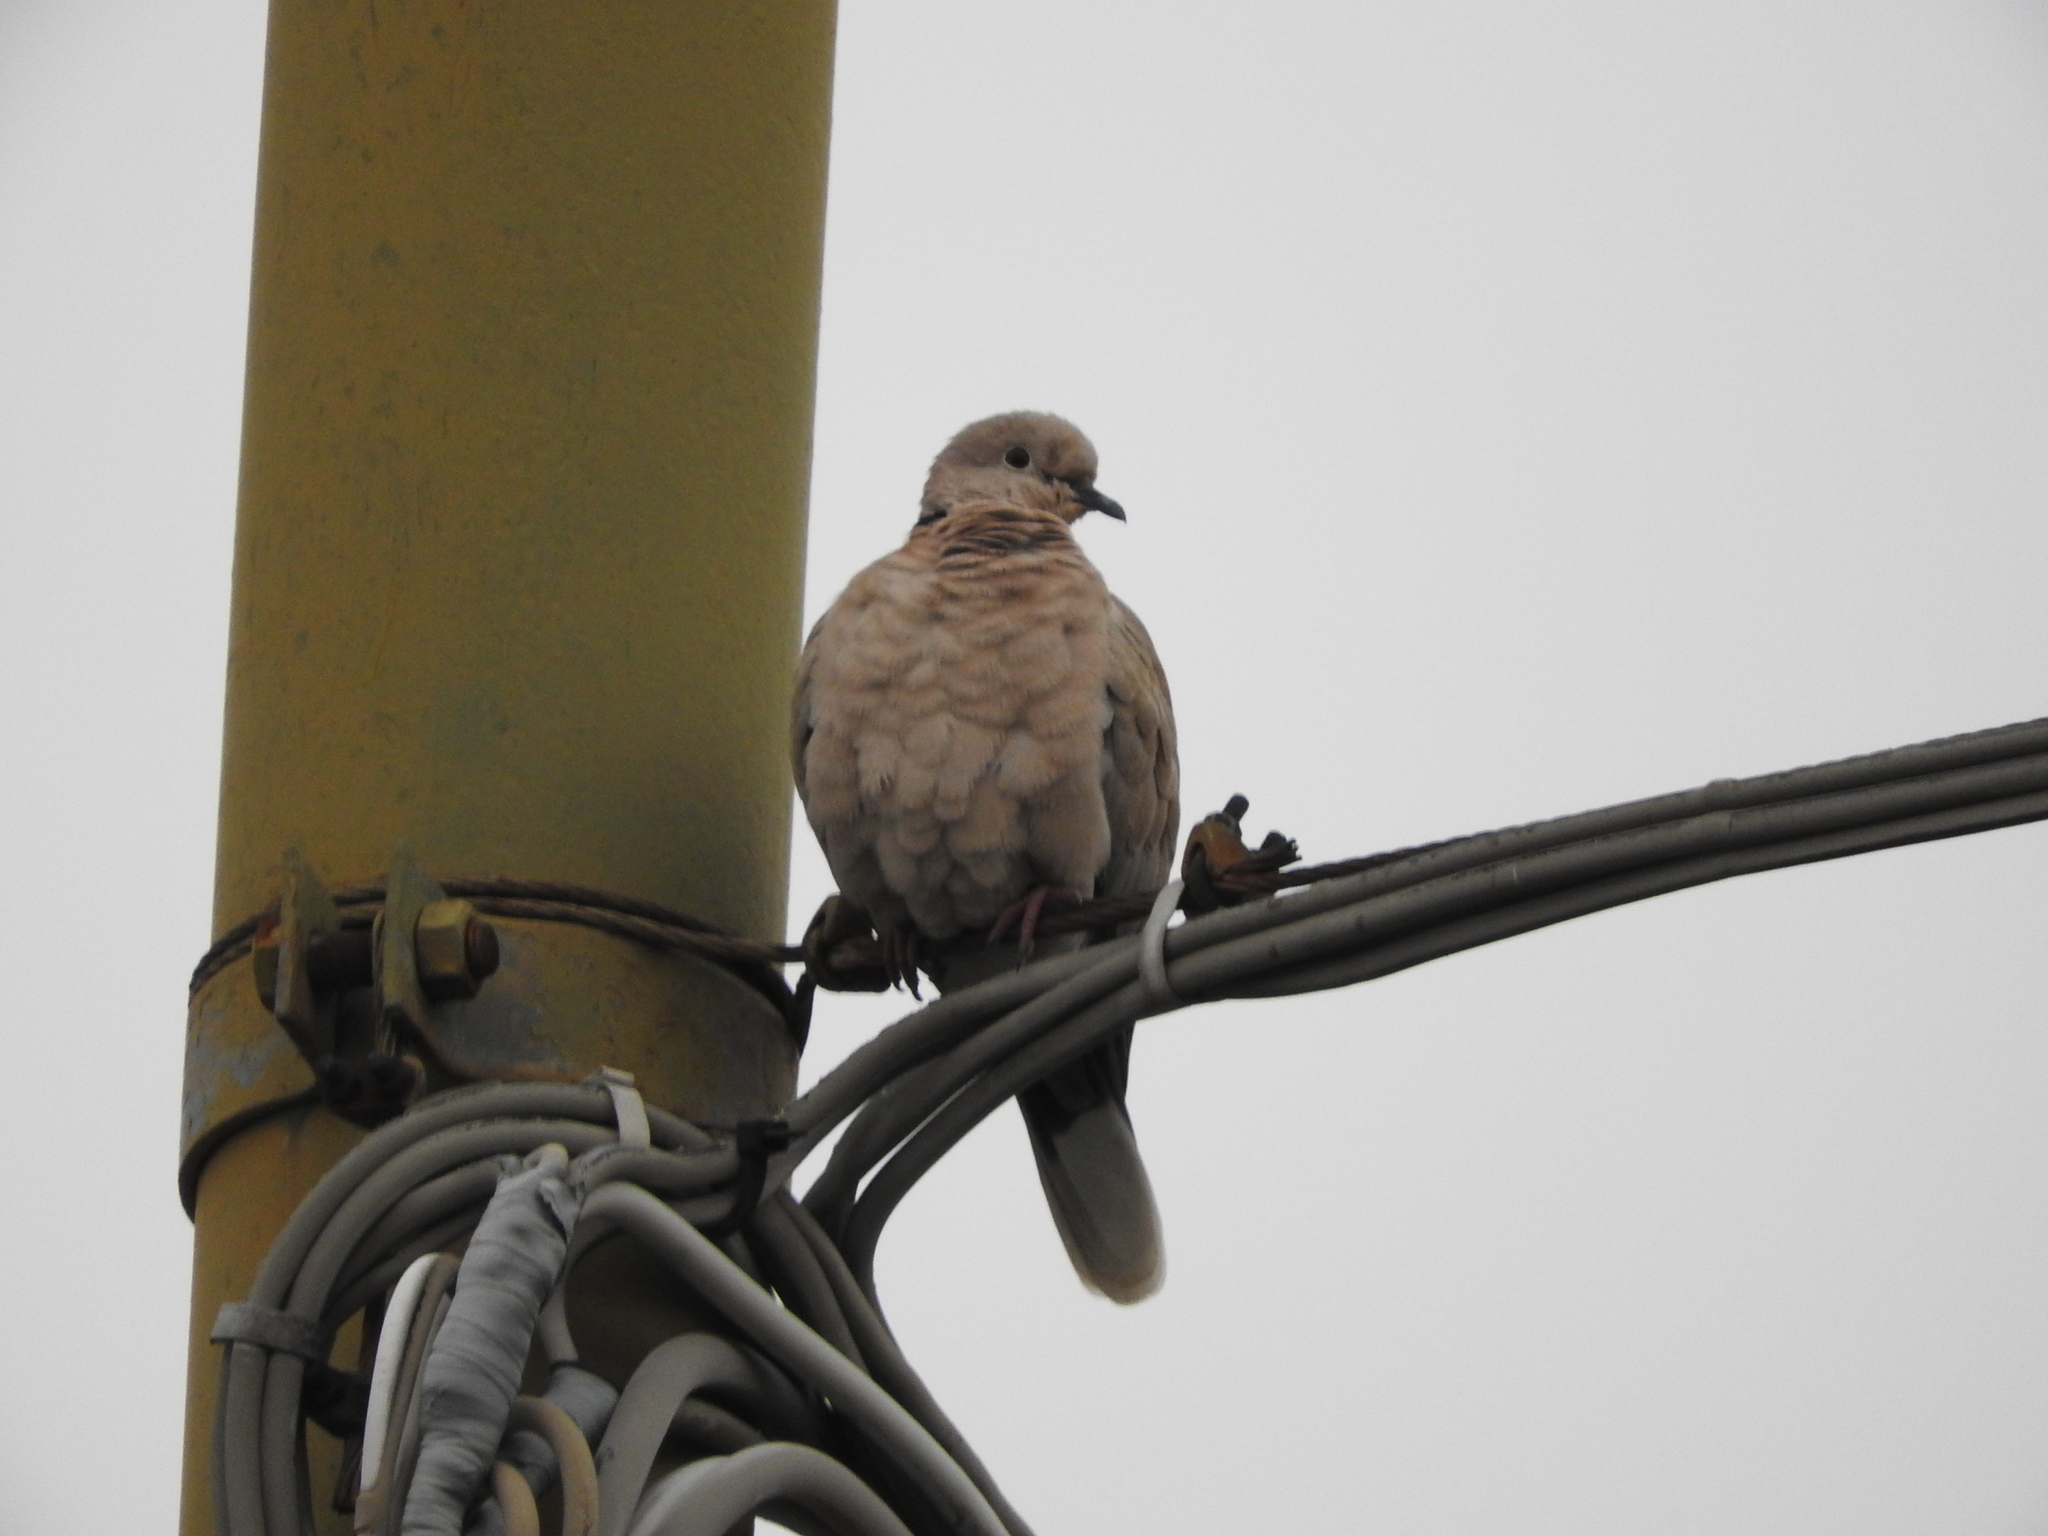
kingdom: Animalia
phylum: Chordata
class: Aves
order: Columbiformes
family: Columbidae
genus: Streptopelia
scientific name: Streptopelia decaocto
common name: Eurasian collared dove
